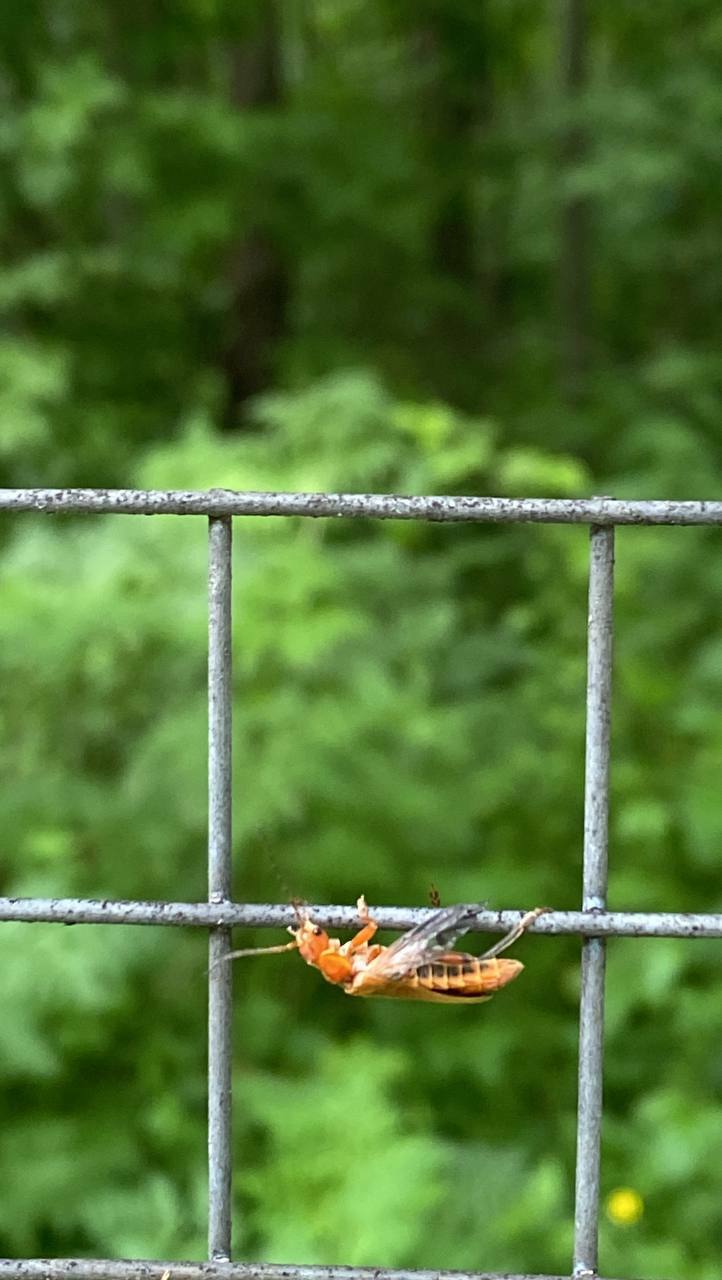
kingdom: Animalia
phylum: Arthropoda
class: Insecta
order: Coleoptera
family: Cantharidae
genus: Cantharis
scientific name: Cantharis livida
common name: Livid soldier beetle
